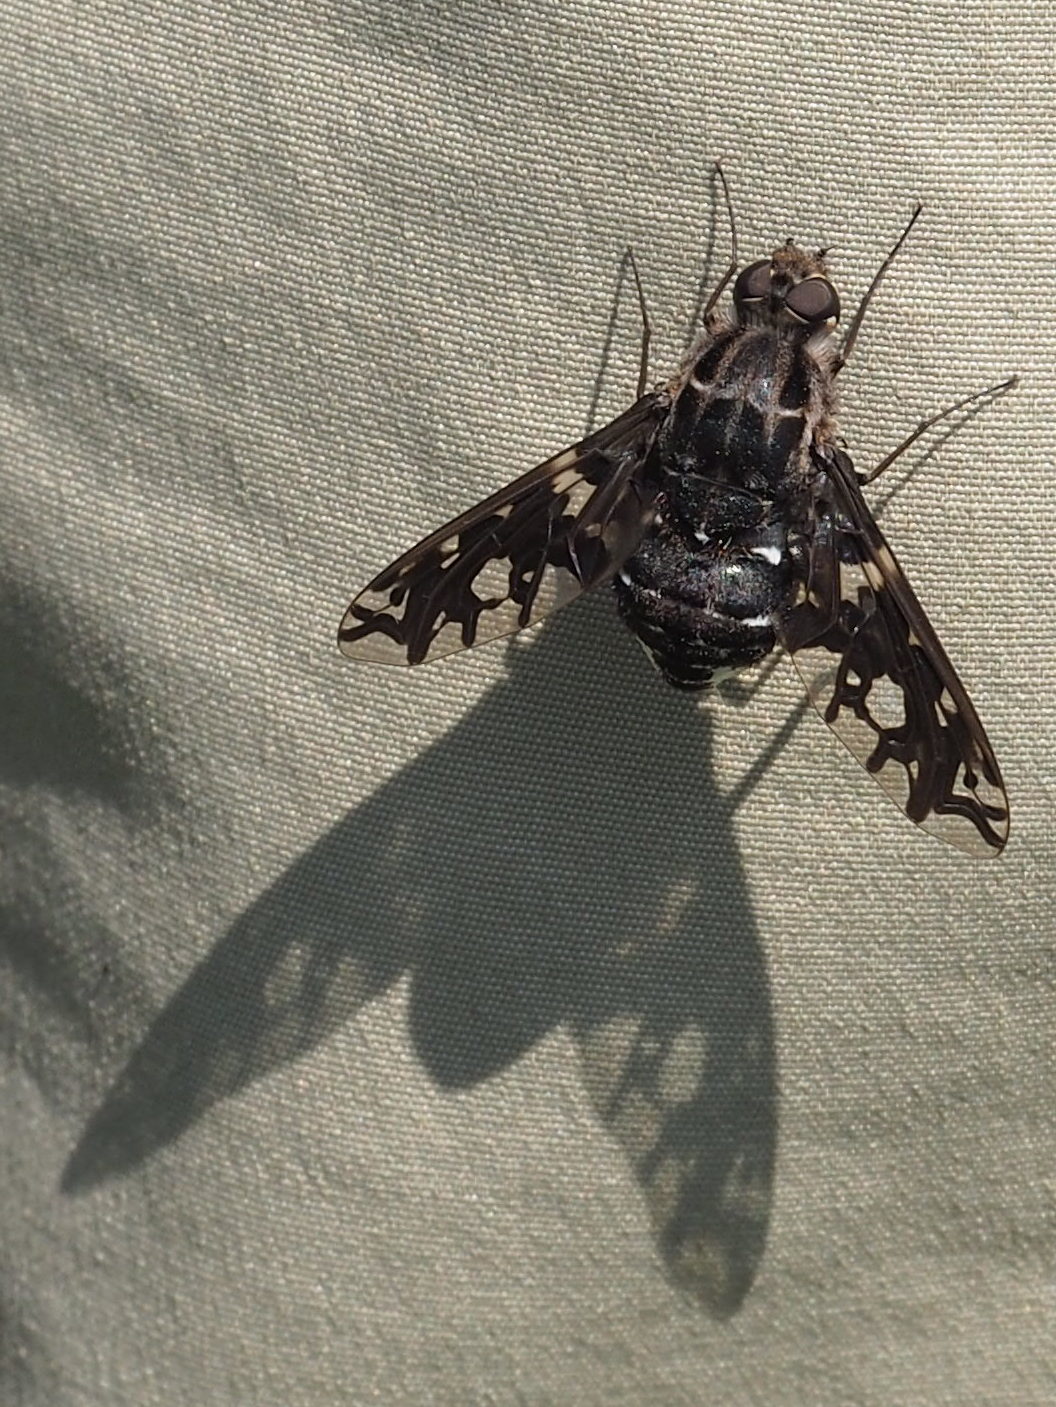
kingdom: Animalia
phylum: Arthropoda
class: Insecta
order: Diptera
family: Bombyliidae
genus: Xenox
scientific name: Xenox tigrinus
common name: Tiger bee fly
